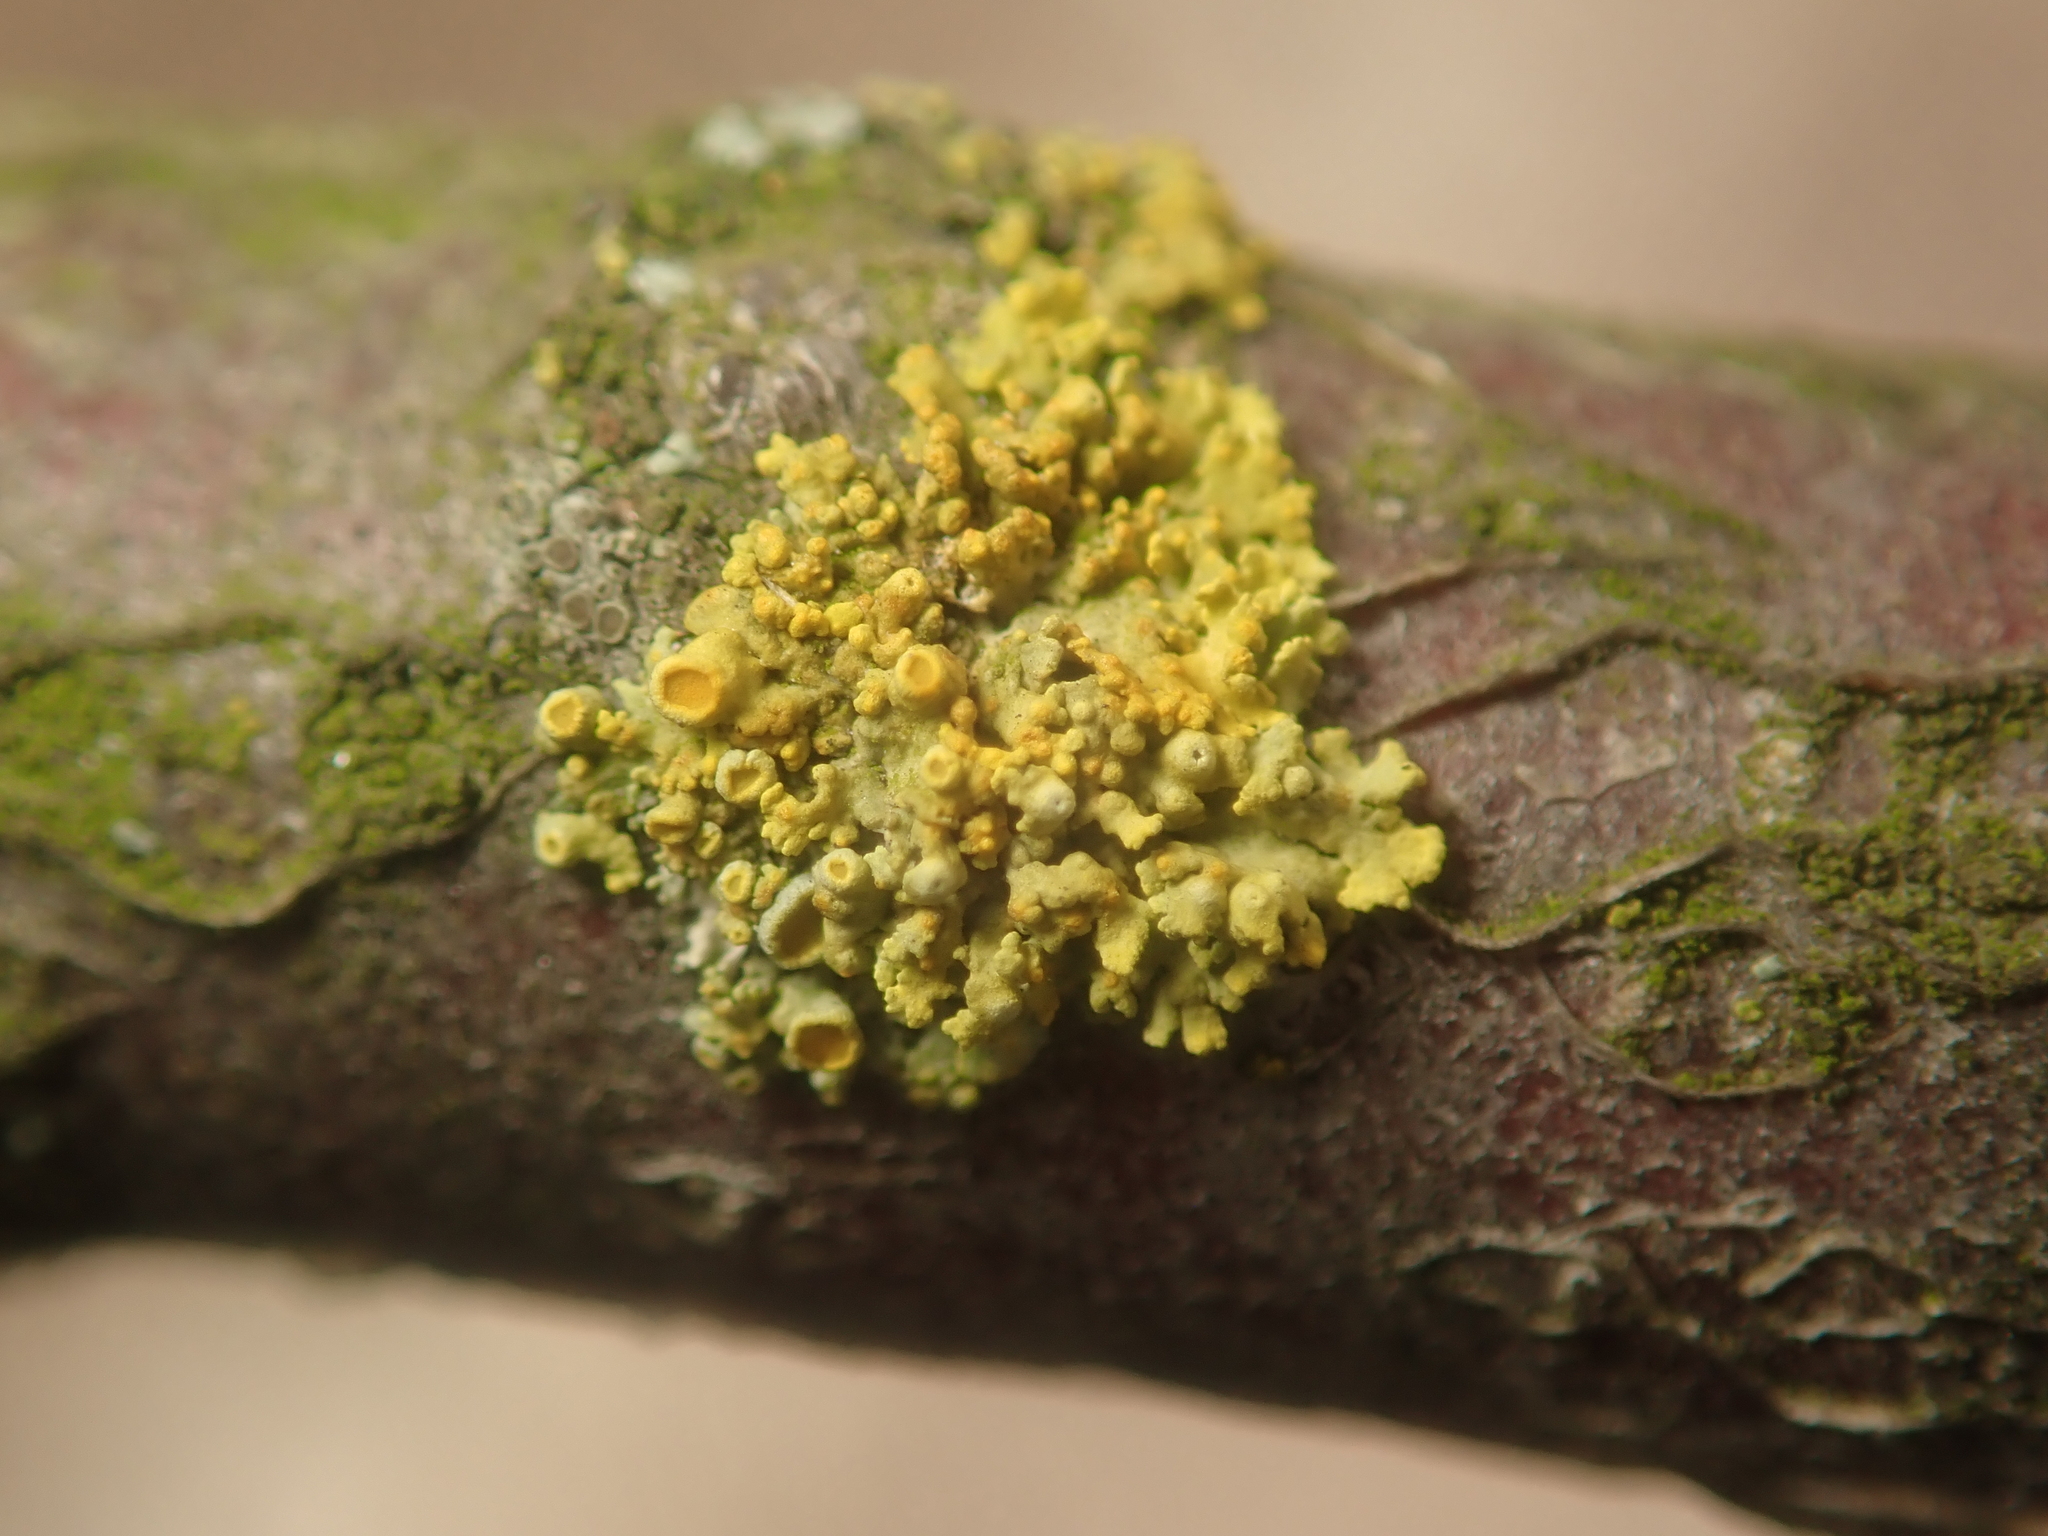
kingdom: Fungi
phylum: Ascomycota
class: Lecanoromycetes
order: Teloschistales
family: Teloschistaceae
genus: Polycauliona
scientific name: Polycauliona polycarpa
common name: Pin-cushion sunburst lichen
